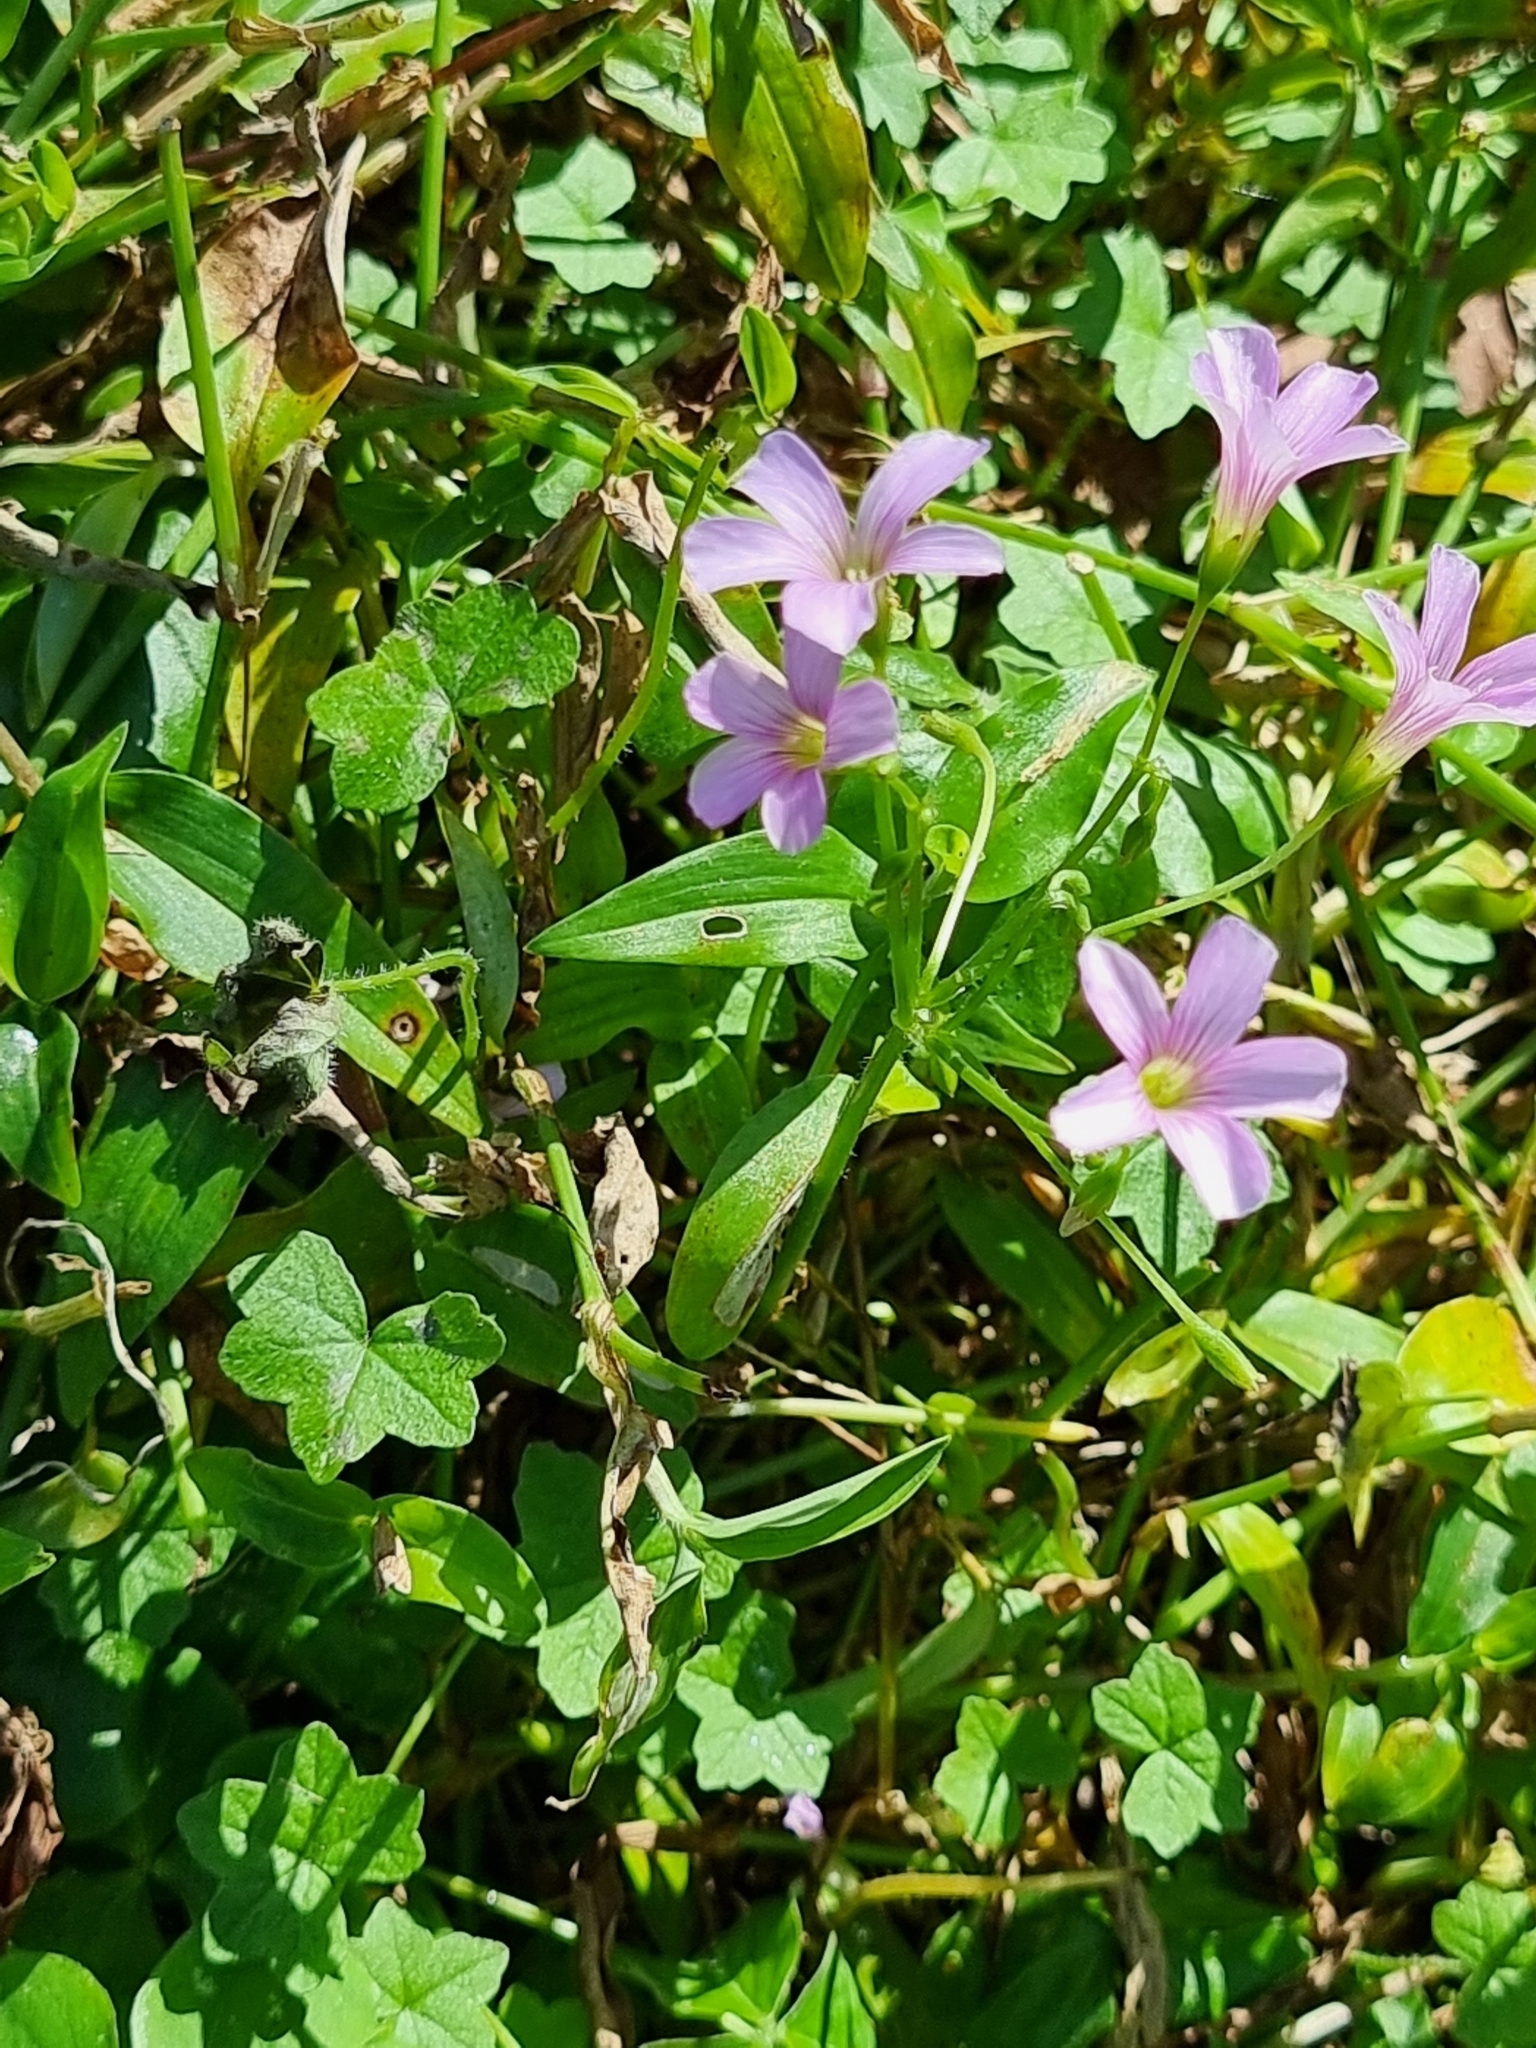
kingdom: Plantae
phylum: Tracheophyta
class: Magnoliopsida
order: Oxalidales
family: Oxalidaceae
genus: Oxalis
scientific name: Oxalis debilis
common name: Large-flowered pink-sorrel
